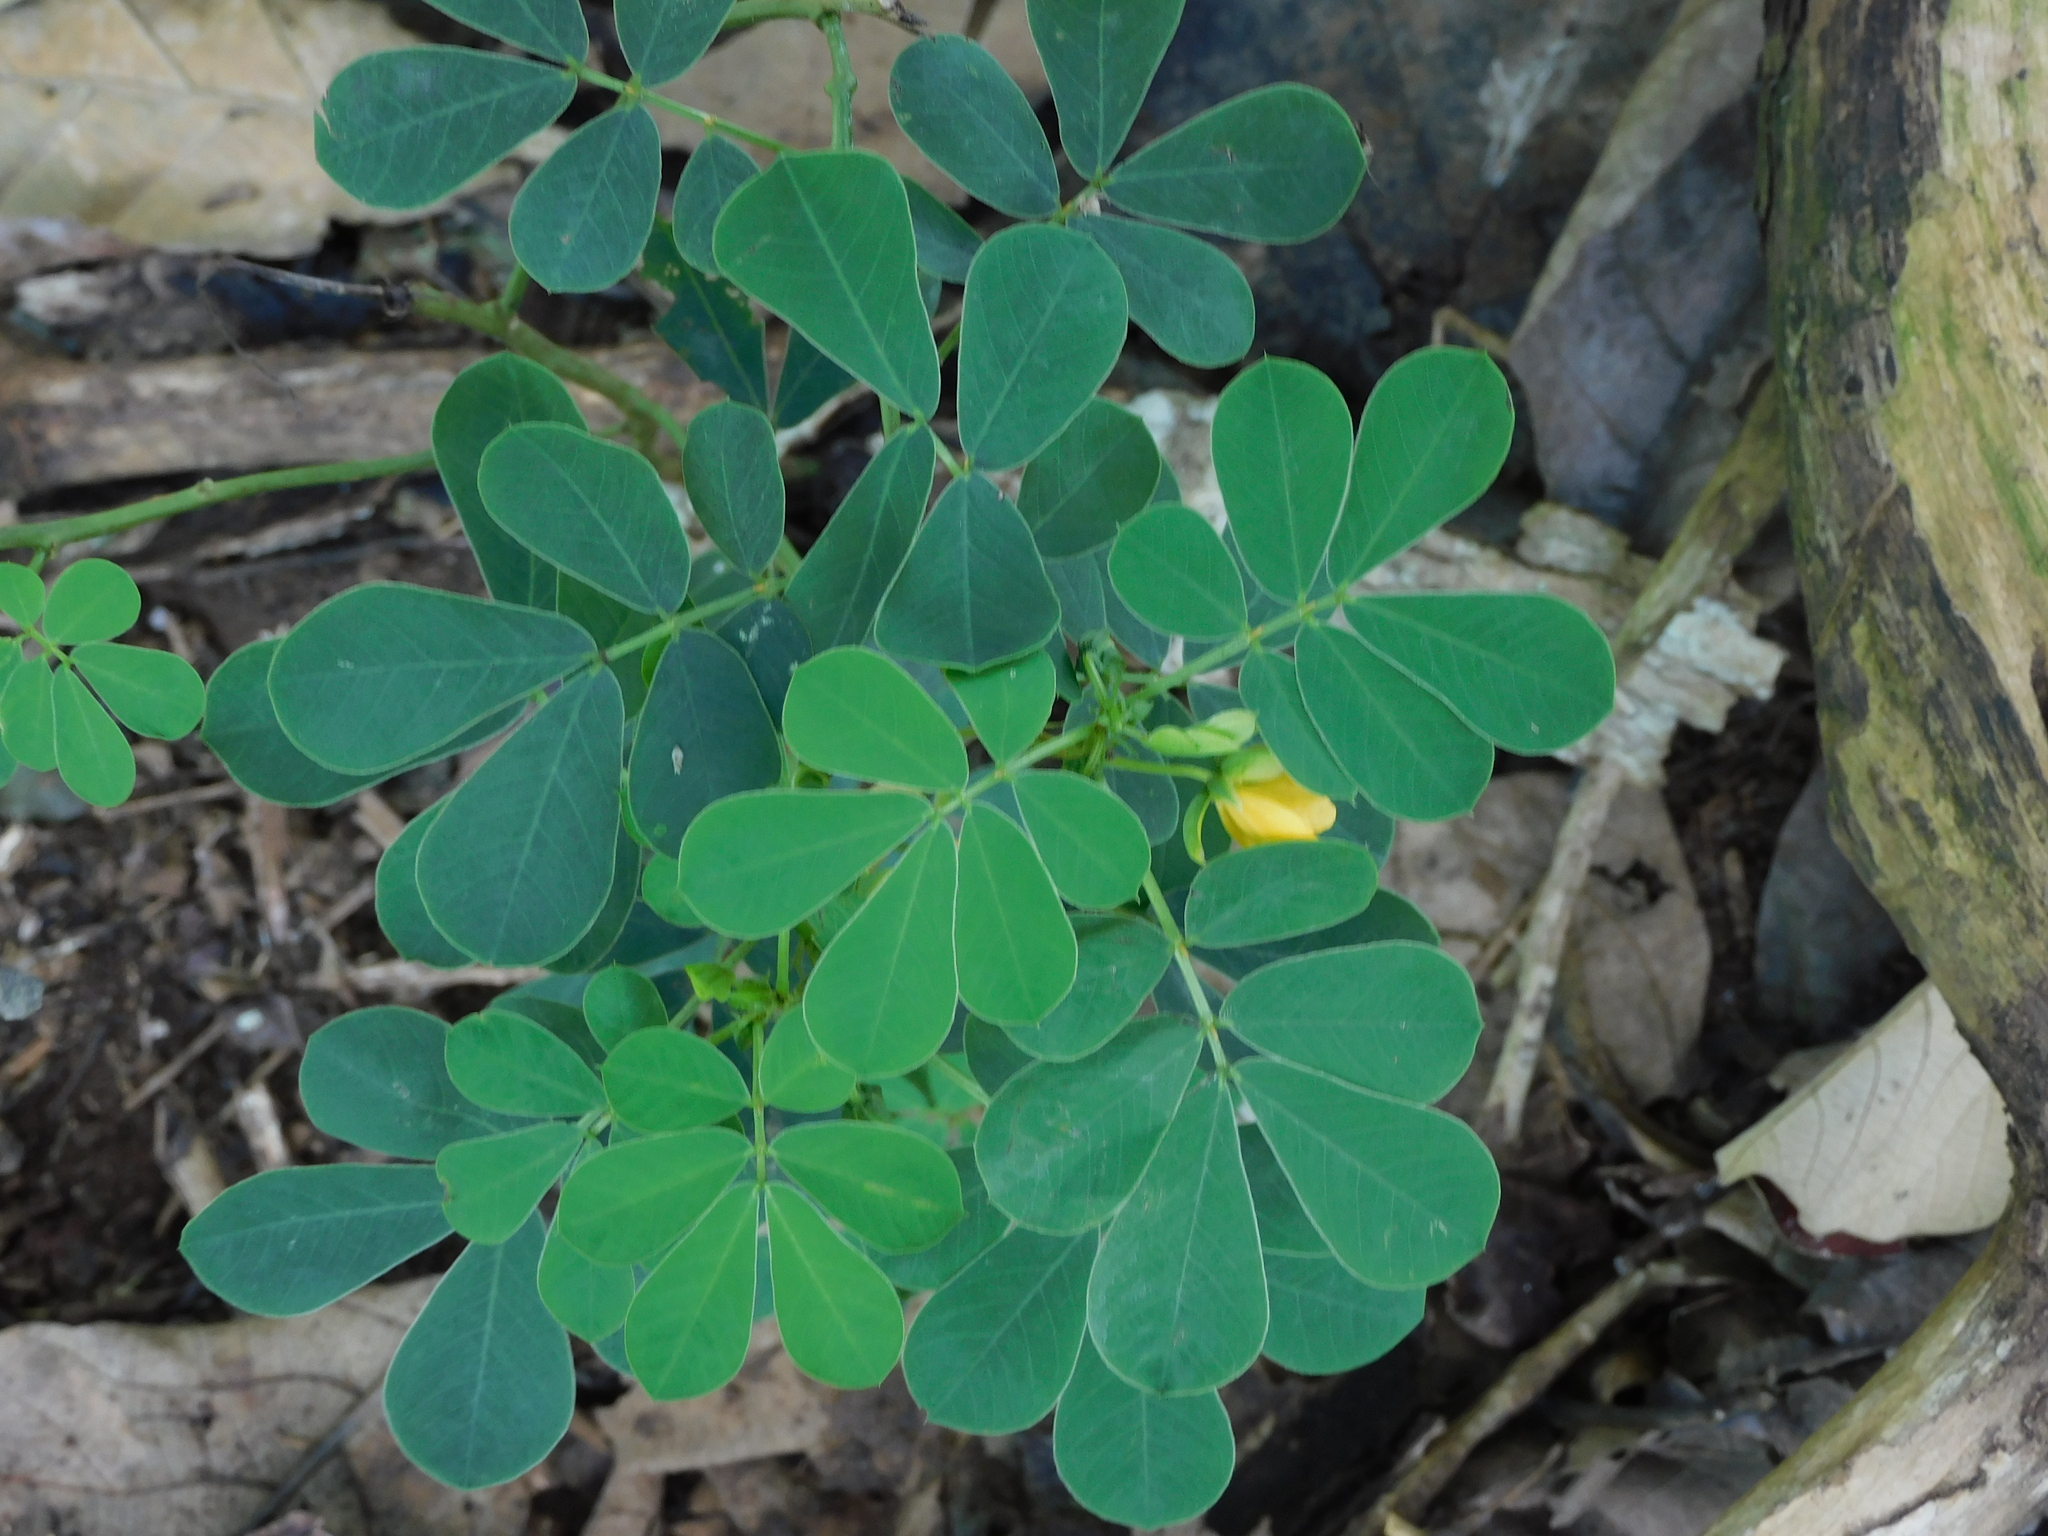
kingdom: Plantae
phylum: Tracheophyta
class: Magnoliopsida
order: Fabales
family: Fabaceae
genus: Senna
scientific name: Senna obtusifolia
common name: Java-bean
